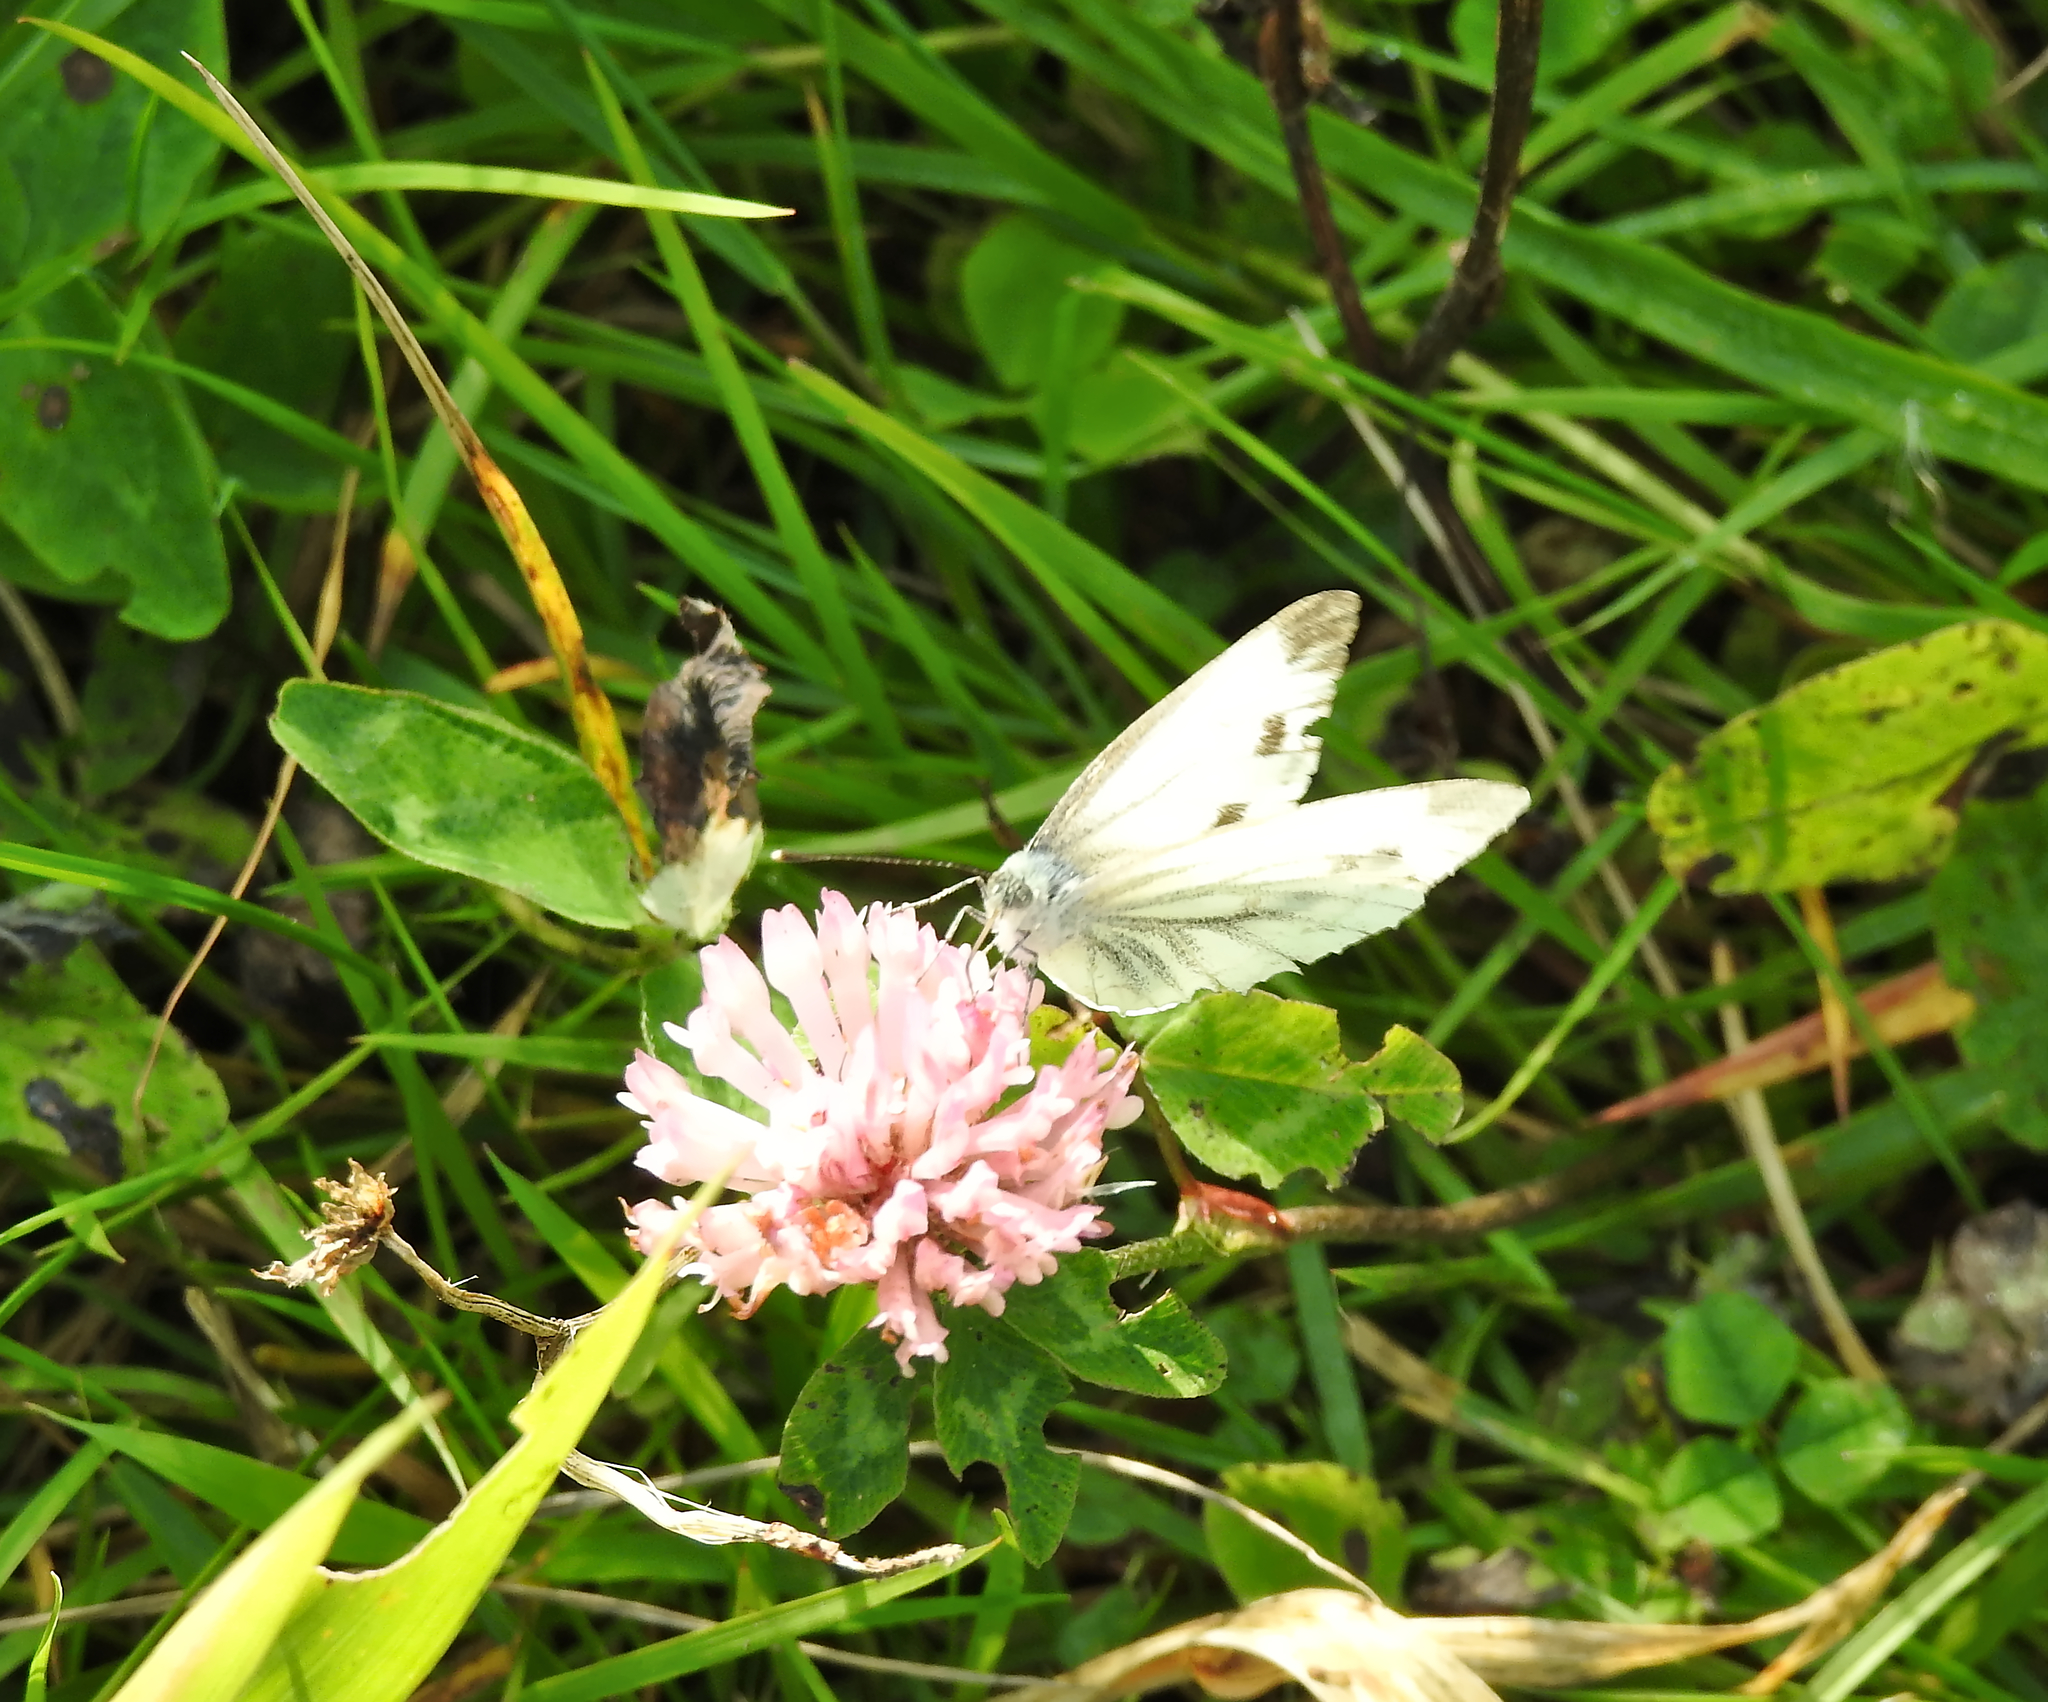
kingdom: Animalia
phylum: Arthropoda
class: Insecta
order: Lepidoptera
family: Pieridae
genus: Pieris
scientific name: Pieris napi
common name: Green-veined white
